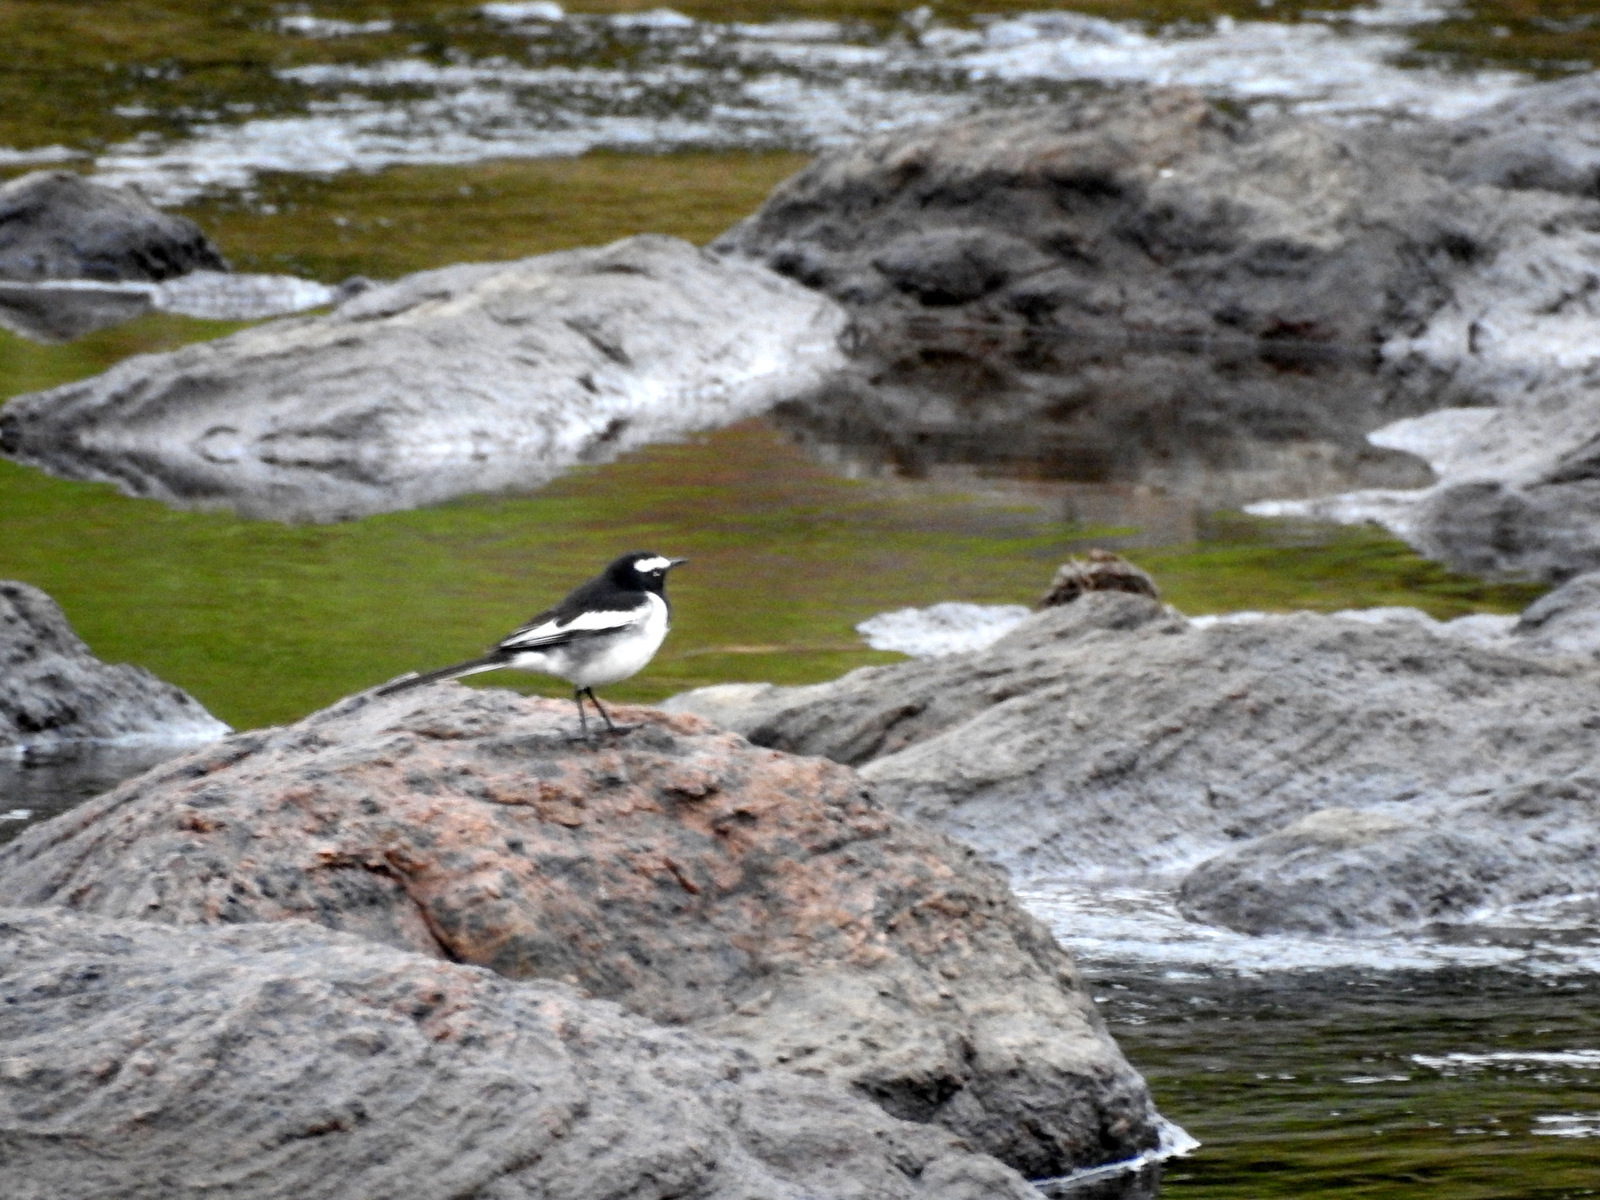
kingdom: Animalia
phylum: Chordata
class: Aves
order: Passeriformes
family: Motacillidae
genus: Motacilla
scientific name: Motacilla maderaspatensis
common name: White-browed wagtail
